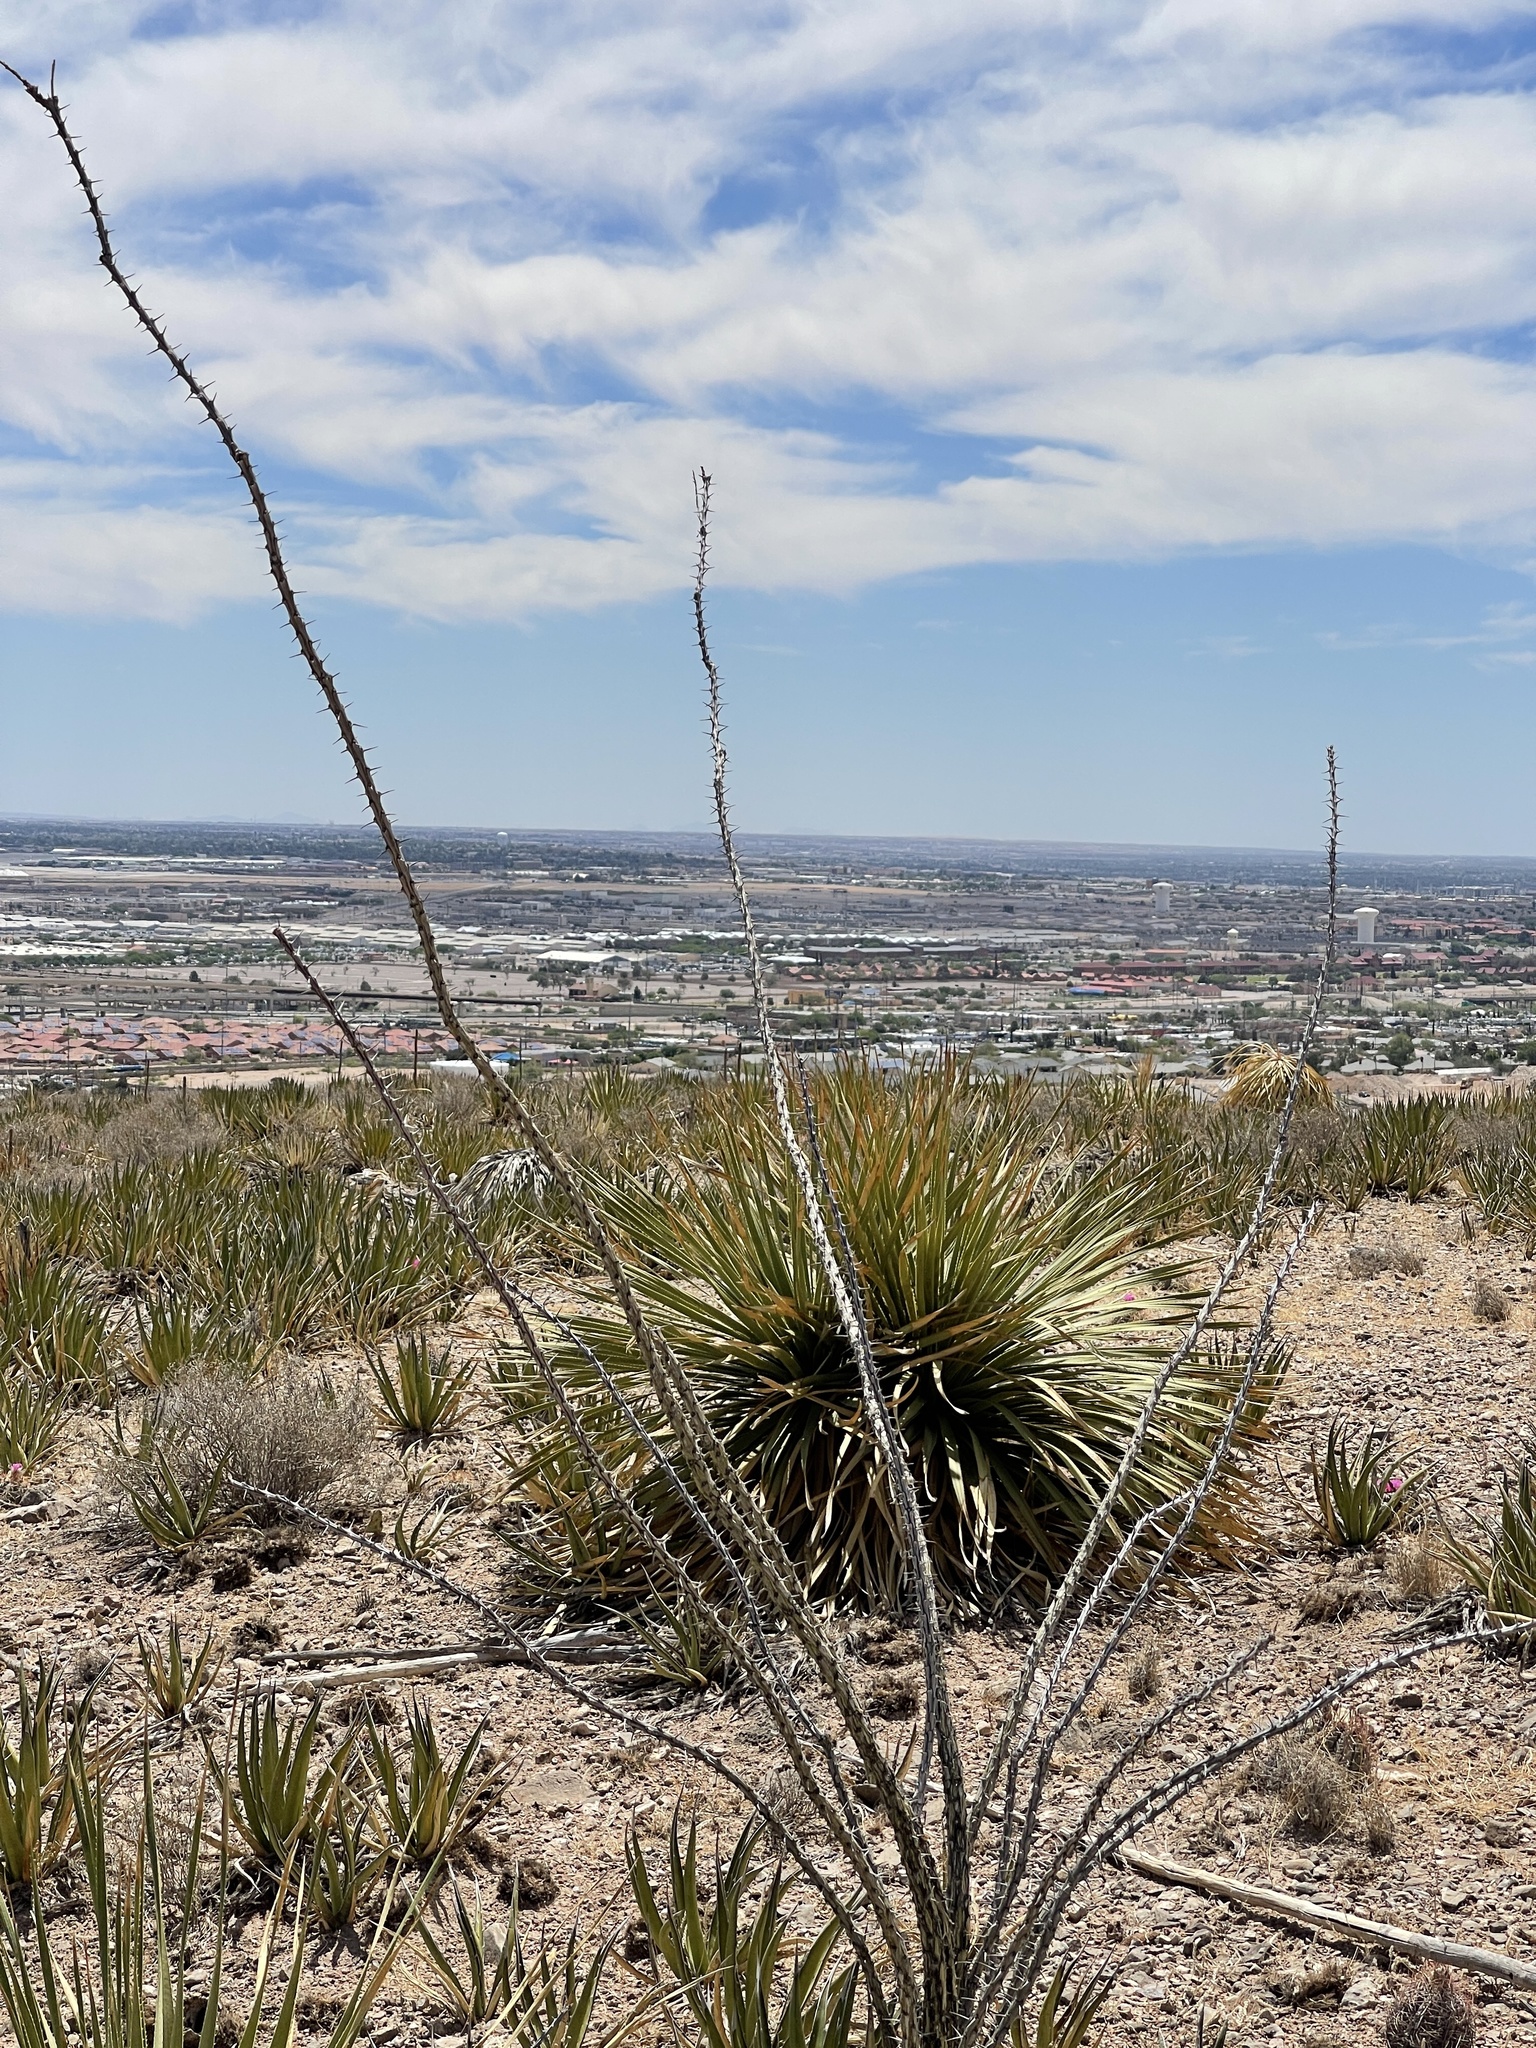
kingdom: Plantae
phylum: Tracheophyta
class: Magnoliopsida
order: Ericales
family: Fouquieriaceae
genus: Fouquieria
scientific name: Fouquieria splendens
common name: Vine-cactus
